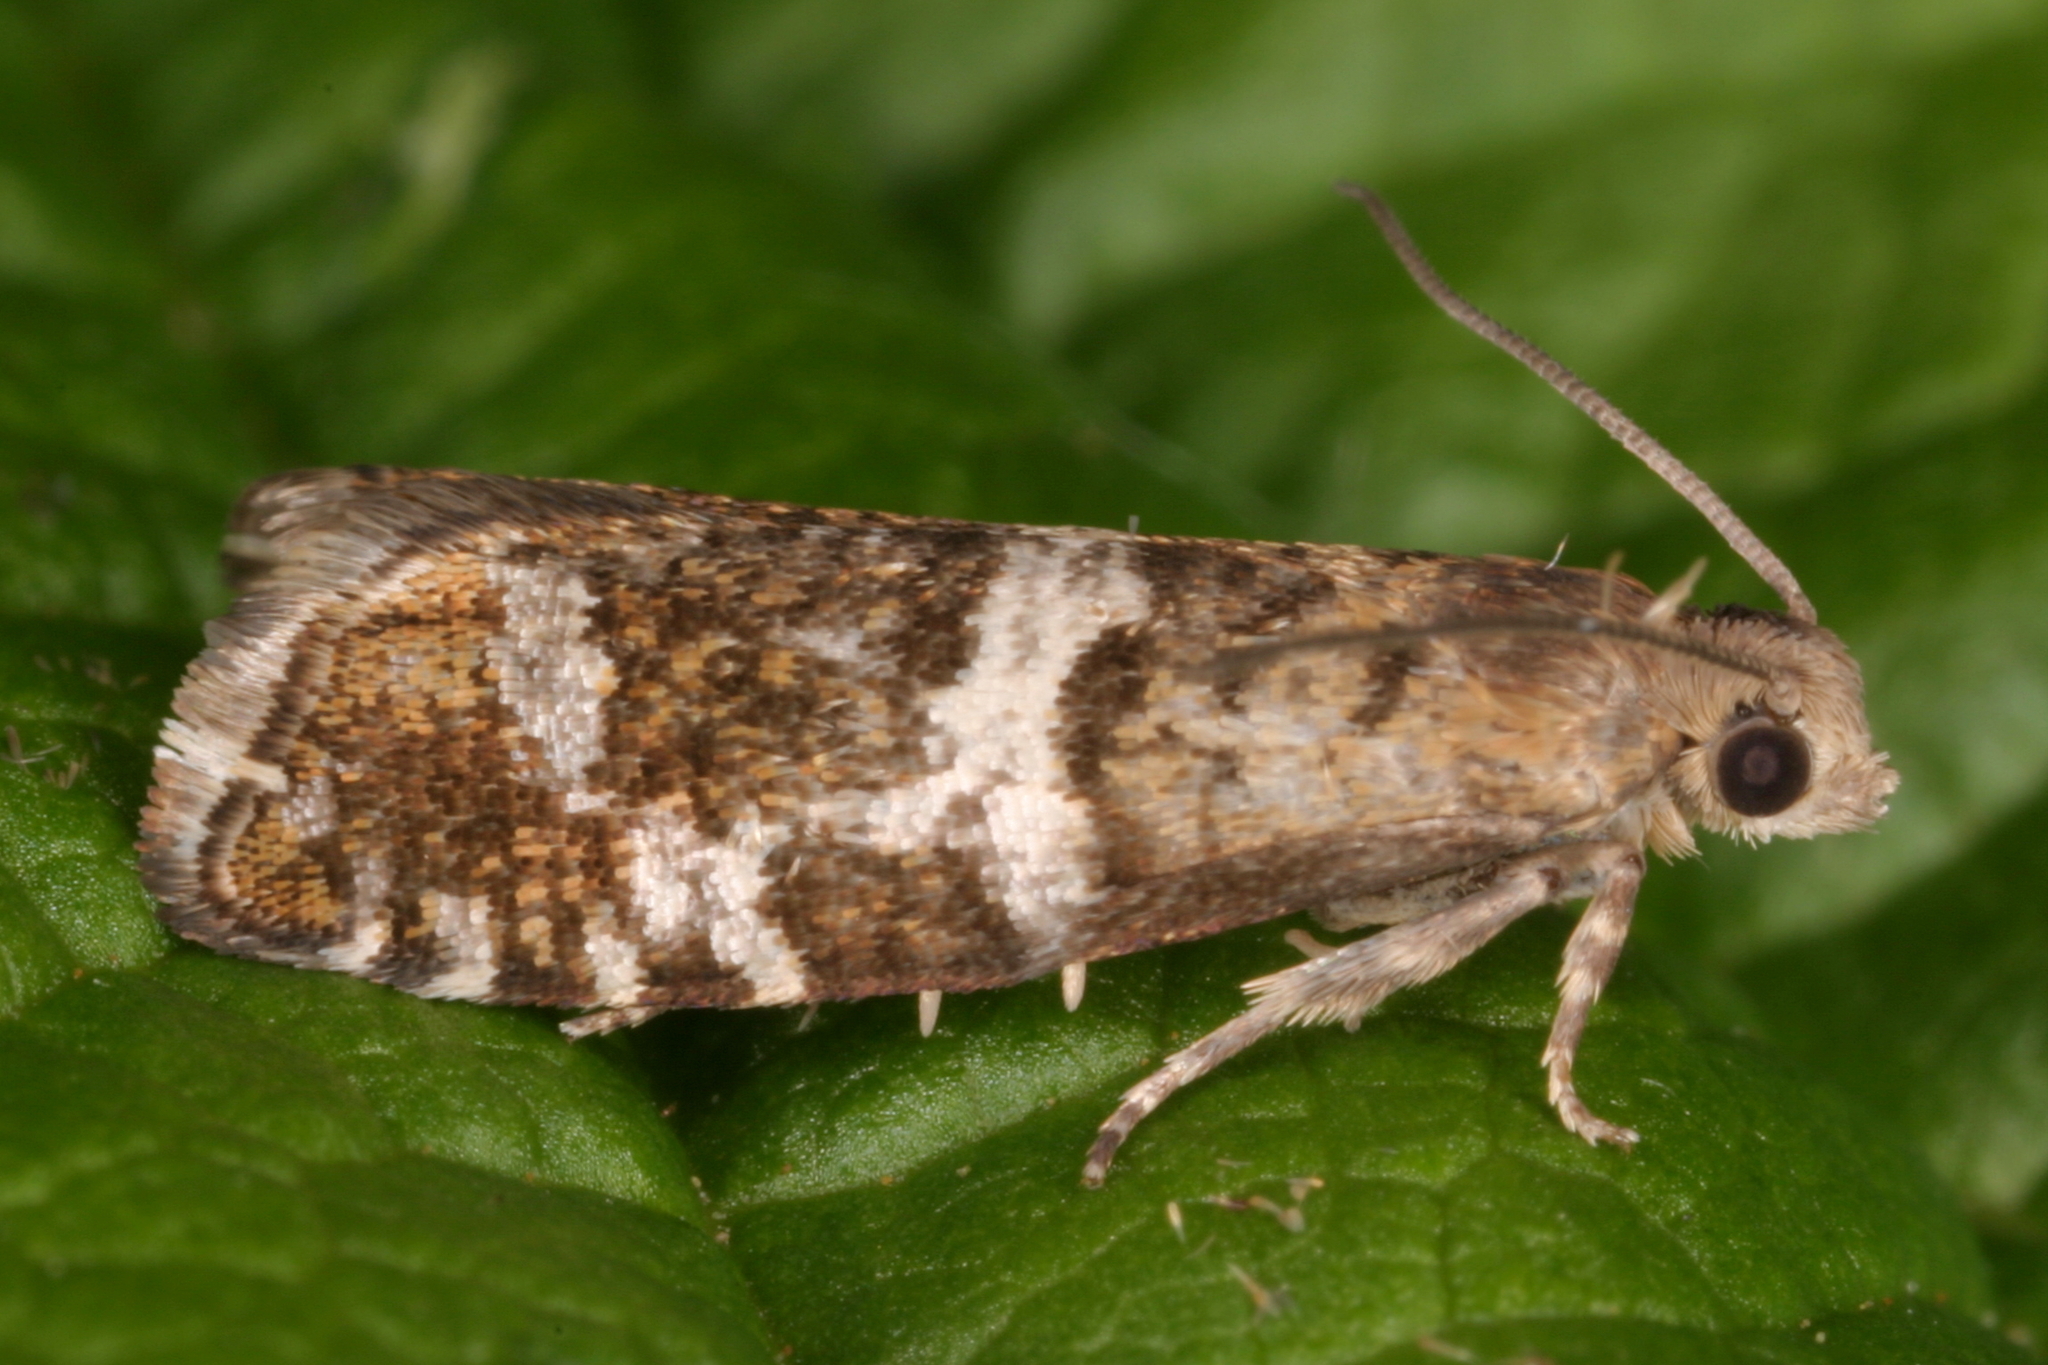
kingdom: Animalia
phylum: Arthropoda
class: Insecta
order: Lepidoptera
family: Tortricidae
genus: Epinotia
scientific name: Epinotia fraternana
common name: Silver-barred bell
